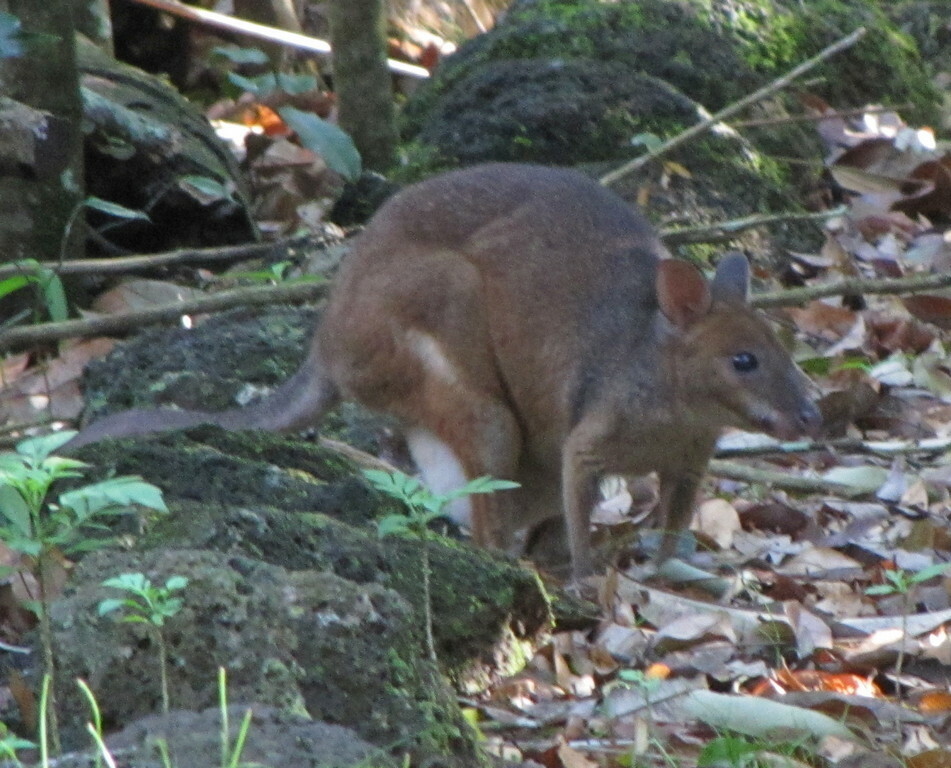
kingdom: Animalia
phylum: Chordata
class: Mammalia
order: Diprotodontia
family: Macropodidae
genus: Thylogale
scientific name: Thylogale stigmatica
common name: Red-legged pademelon
